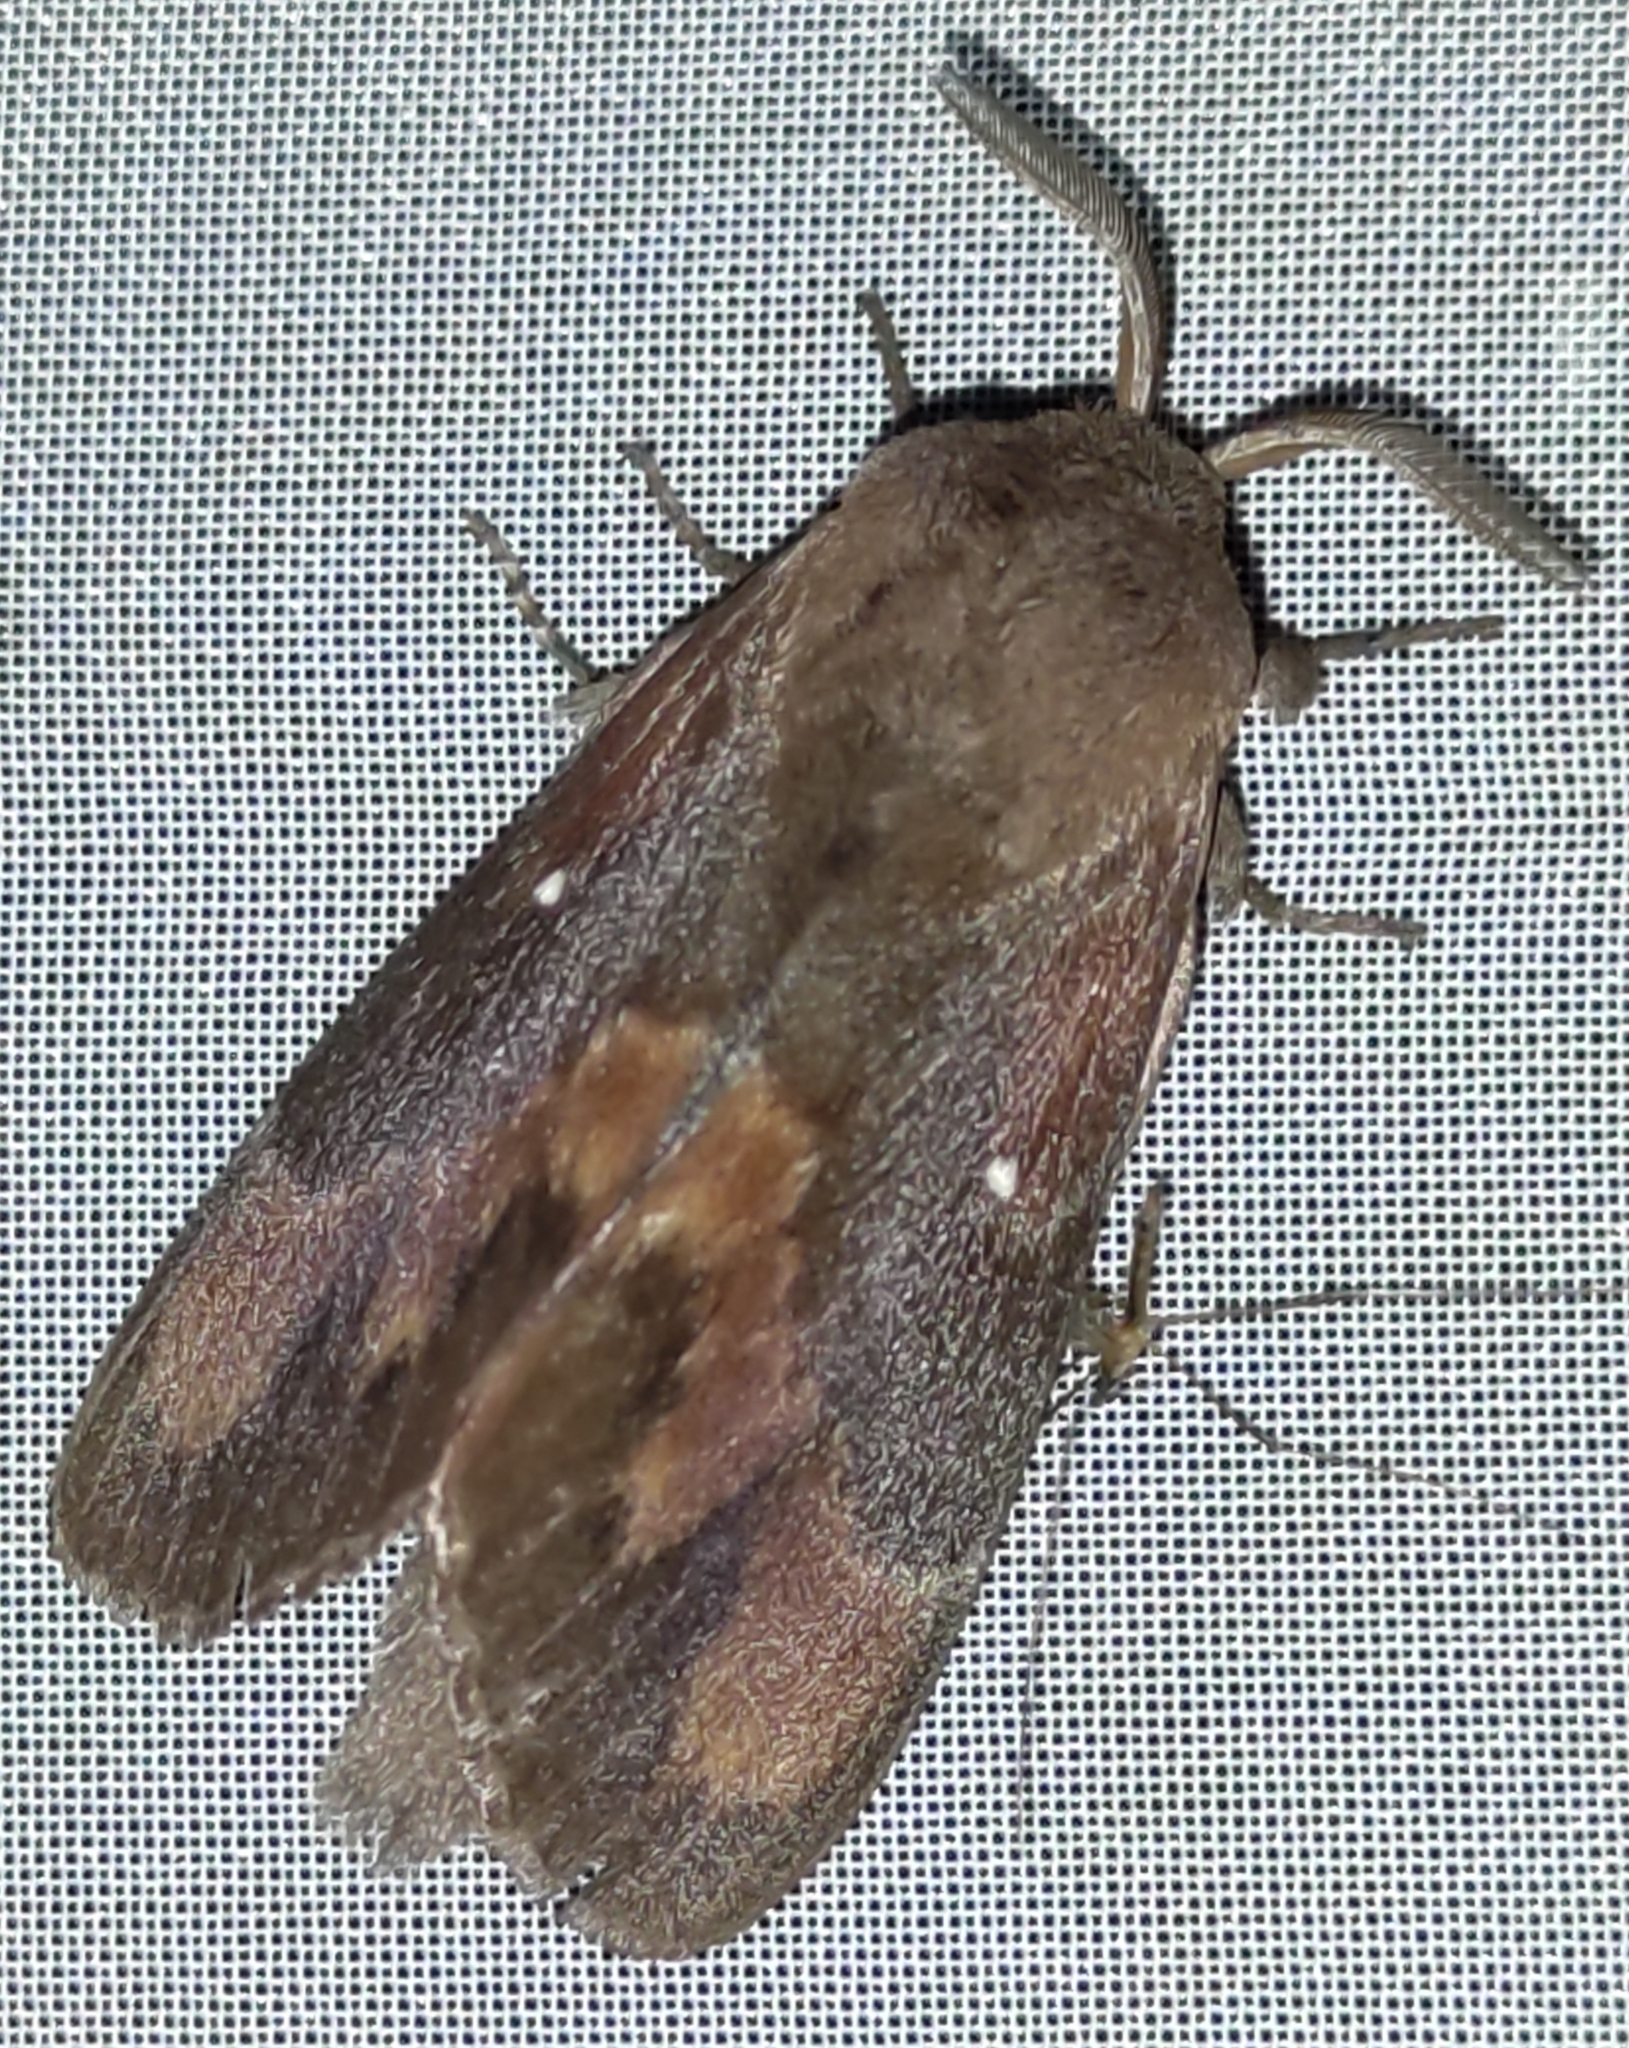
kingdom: Animalia
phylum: Arthropoda
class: Insecta
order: Lepidoptera
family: Lasiocampidae
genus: Dendrolimus
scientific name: Dendrolimus pini
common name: Pine-tree lappet
